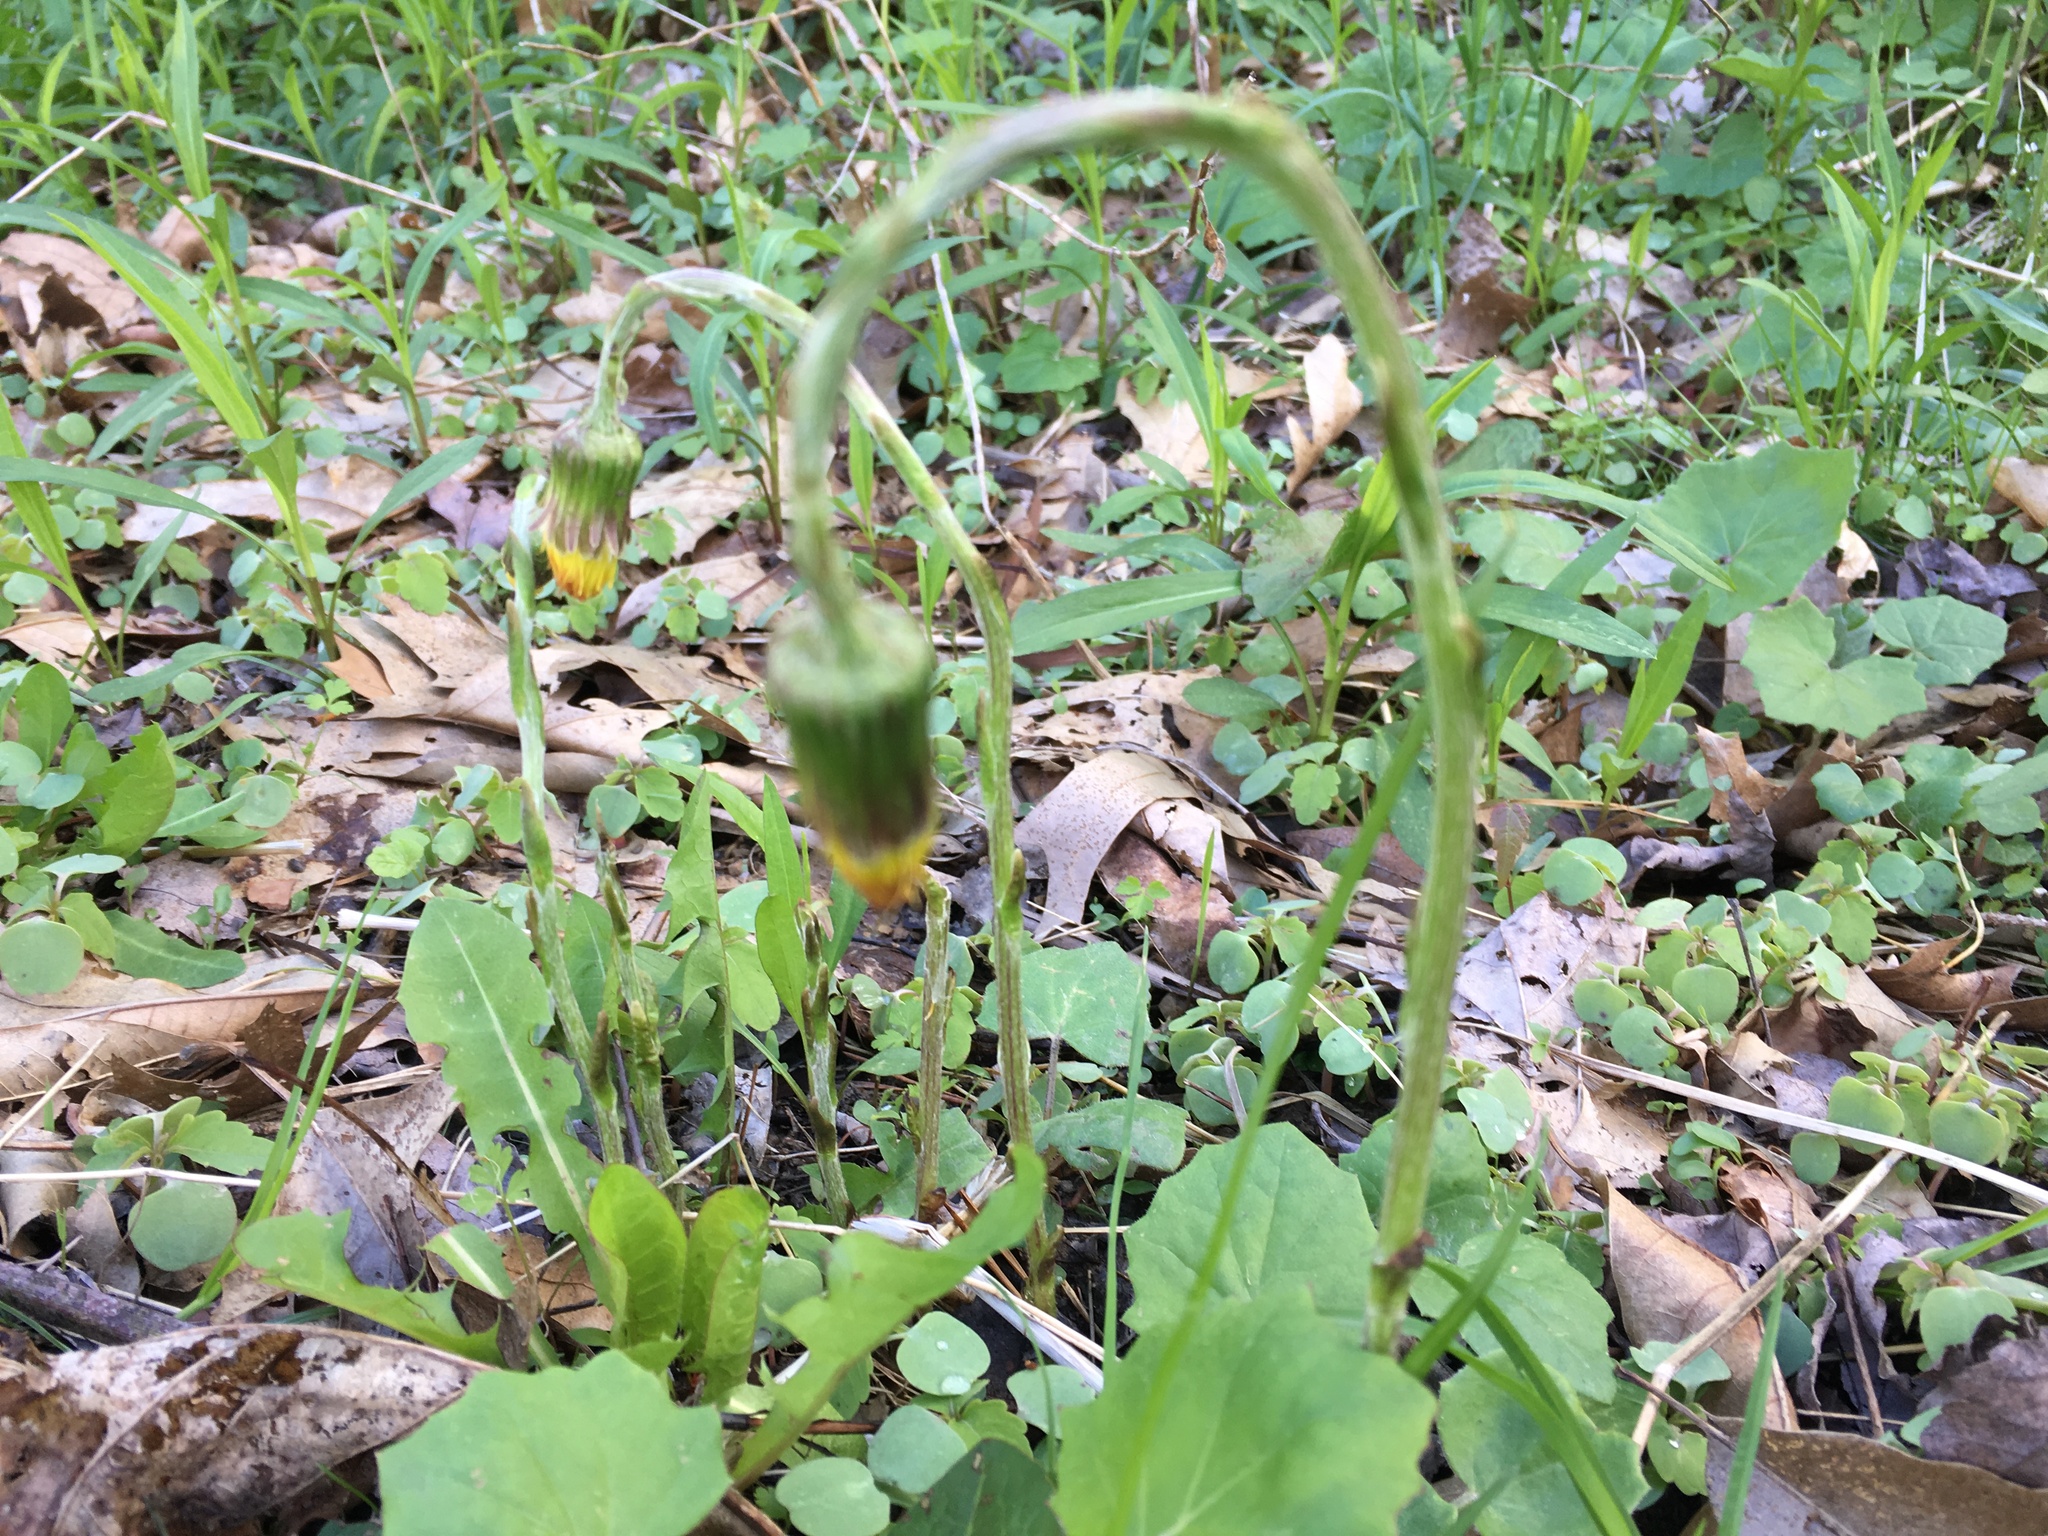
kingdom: Plantae
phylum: Tracheophyta
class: Magnoliopsida
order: Asterales
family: Asteraceae
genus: Tussilago
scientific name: Tussilago farfara
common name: Coltsfoot
